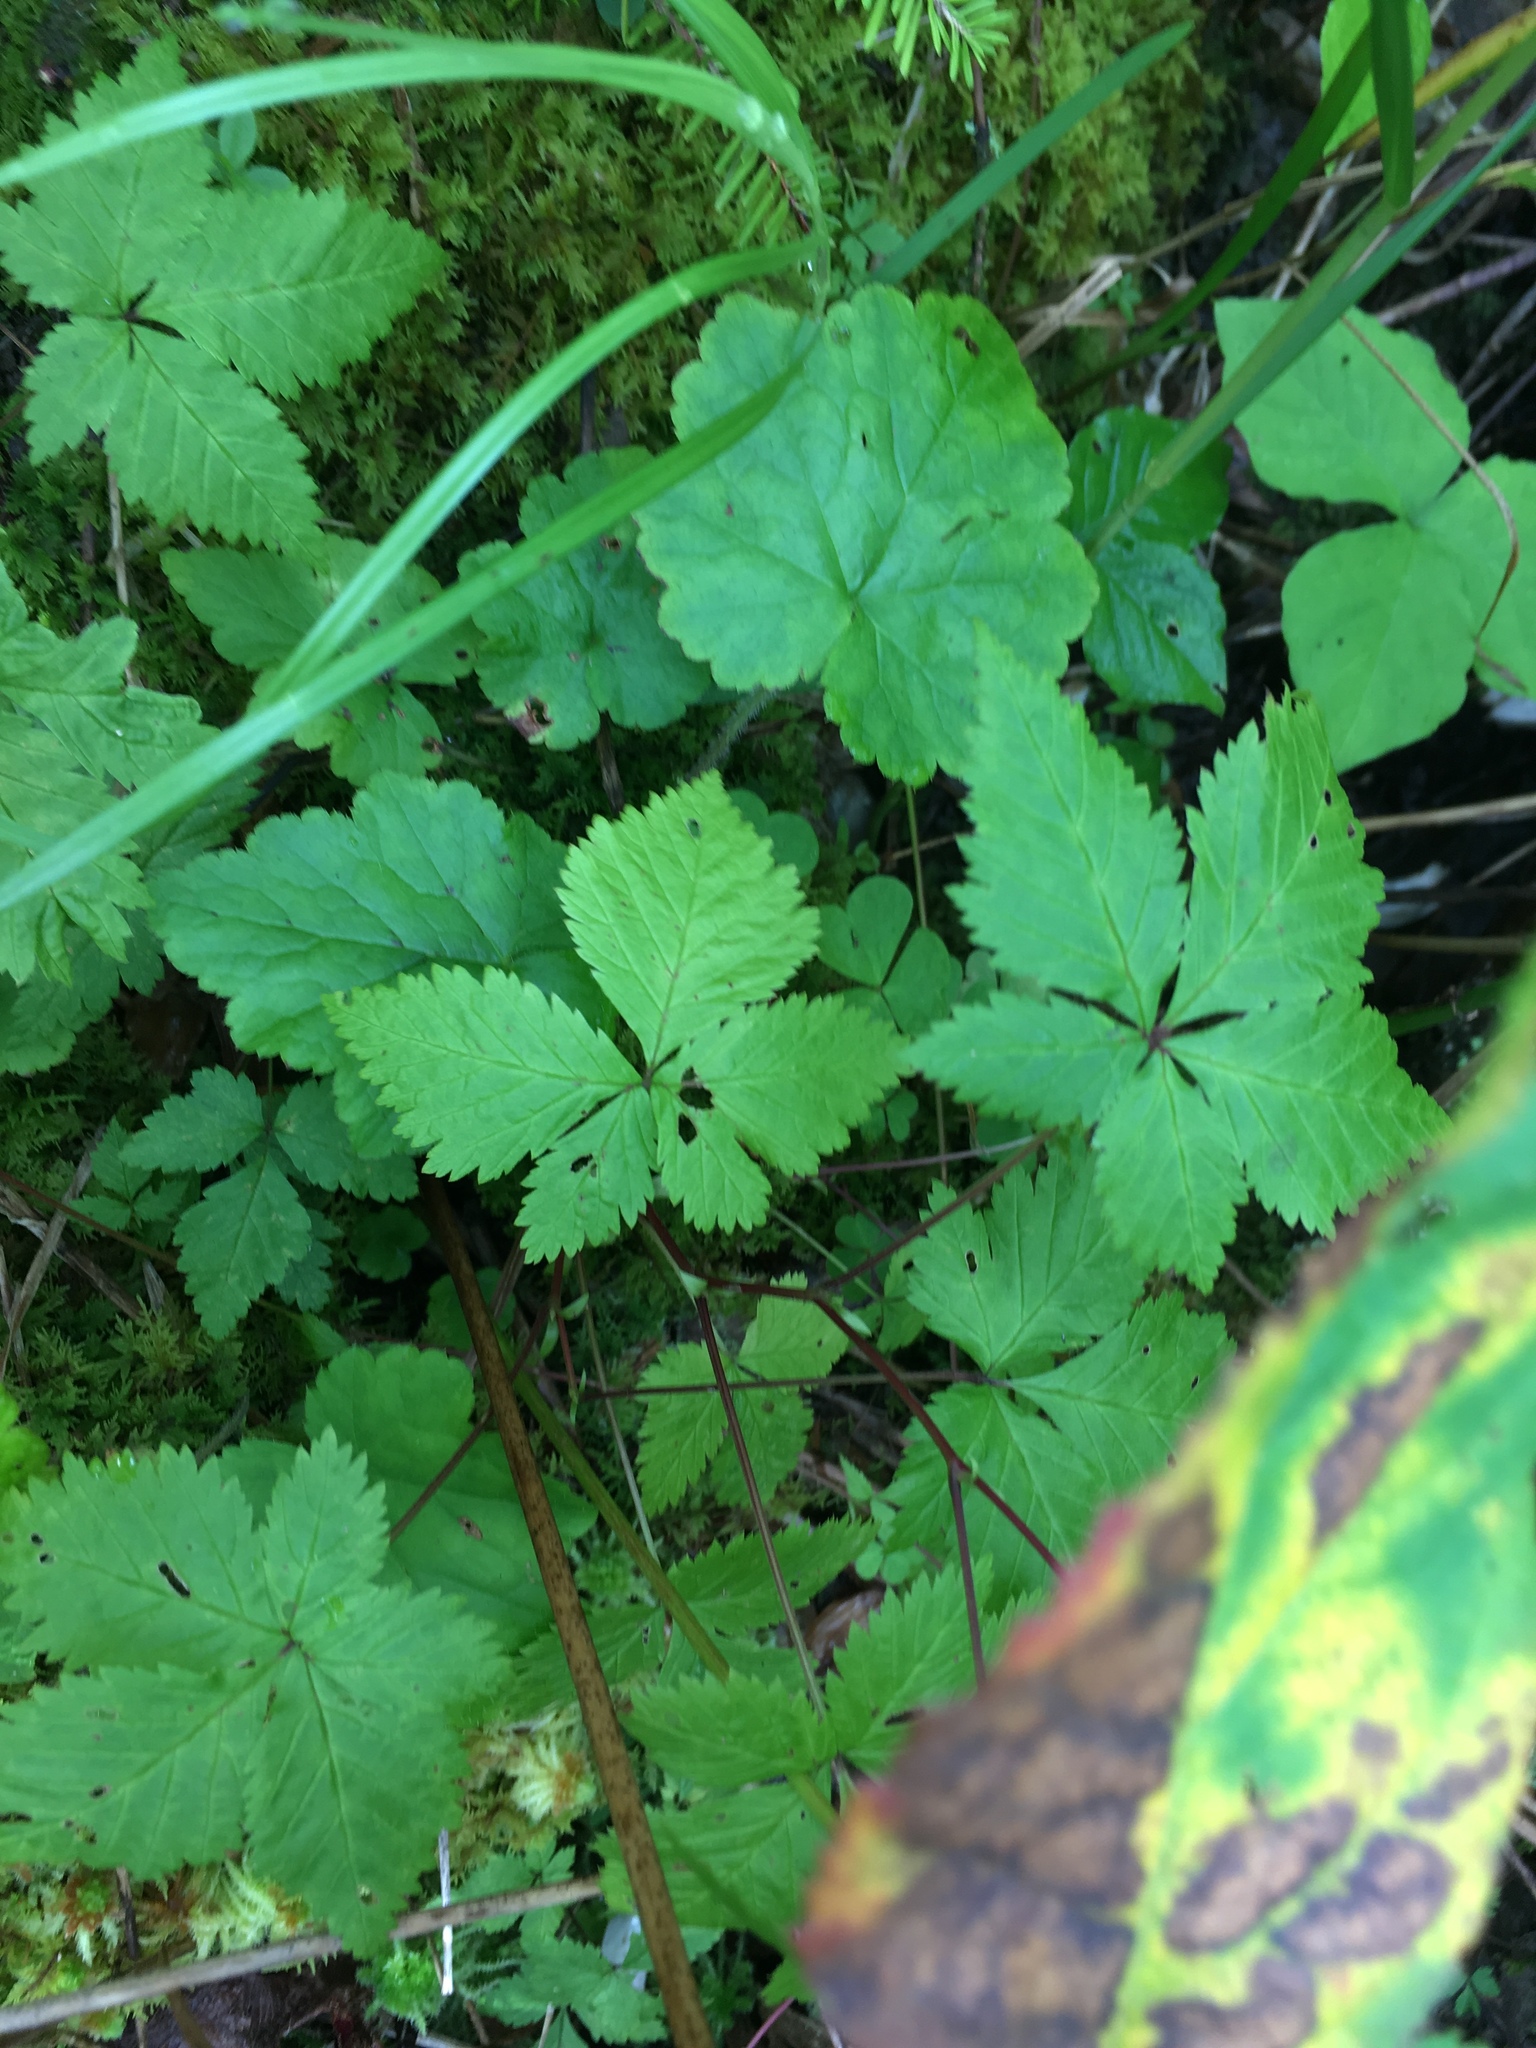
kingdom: Plantae
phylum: Tracheophyta
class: Magnoliopsida
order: Rosales
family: Rosaceae
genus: Rubus
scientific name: Rubus pubescens
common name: Dwarf raspberry
